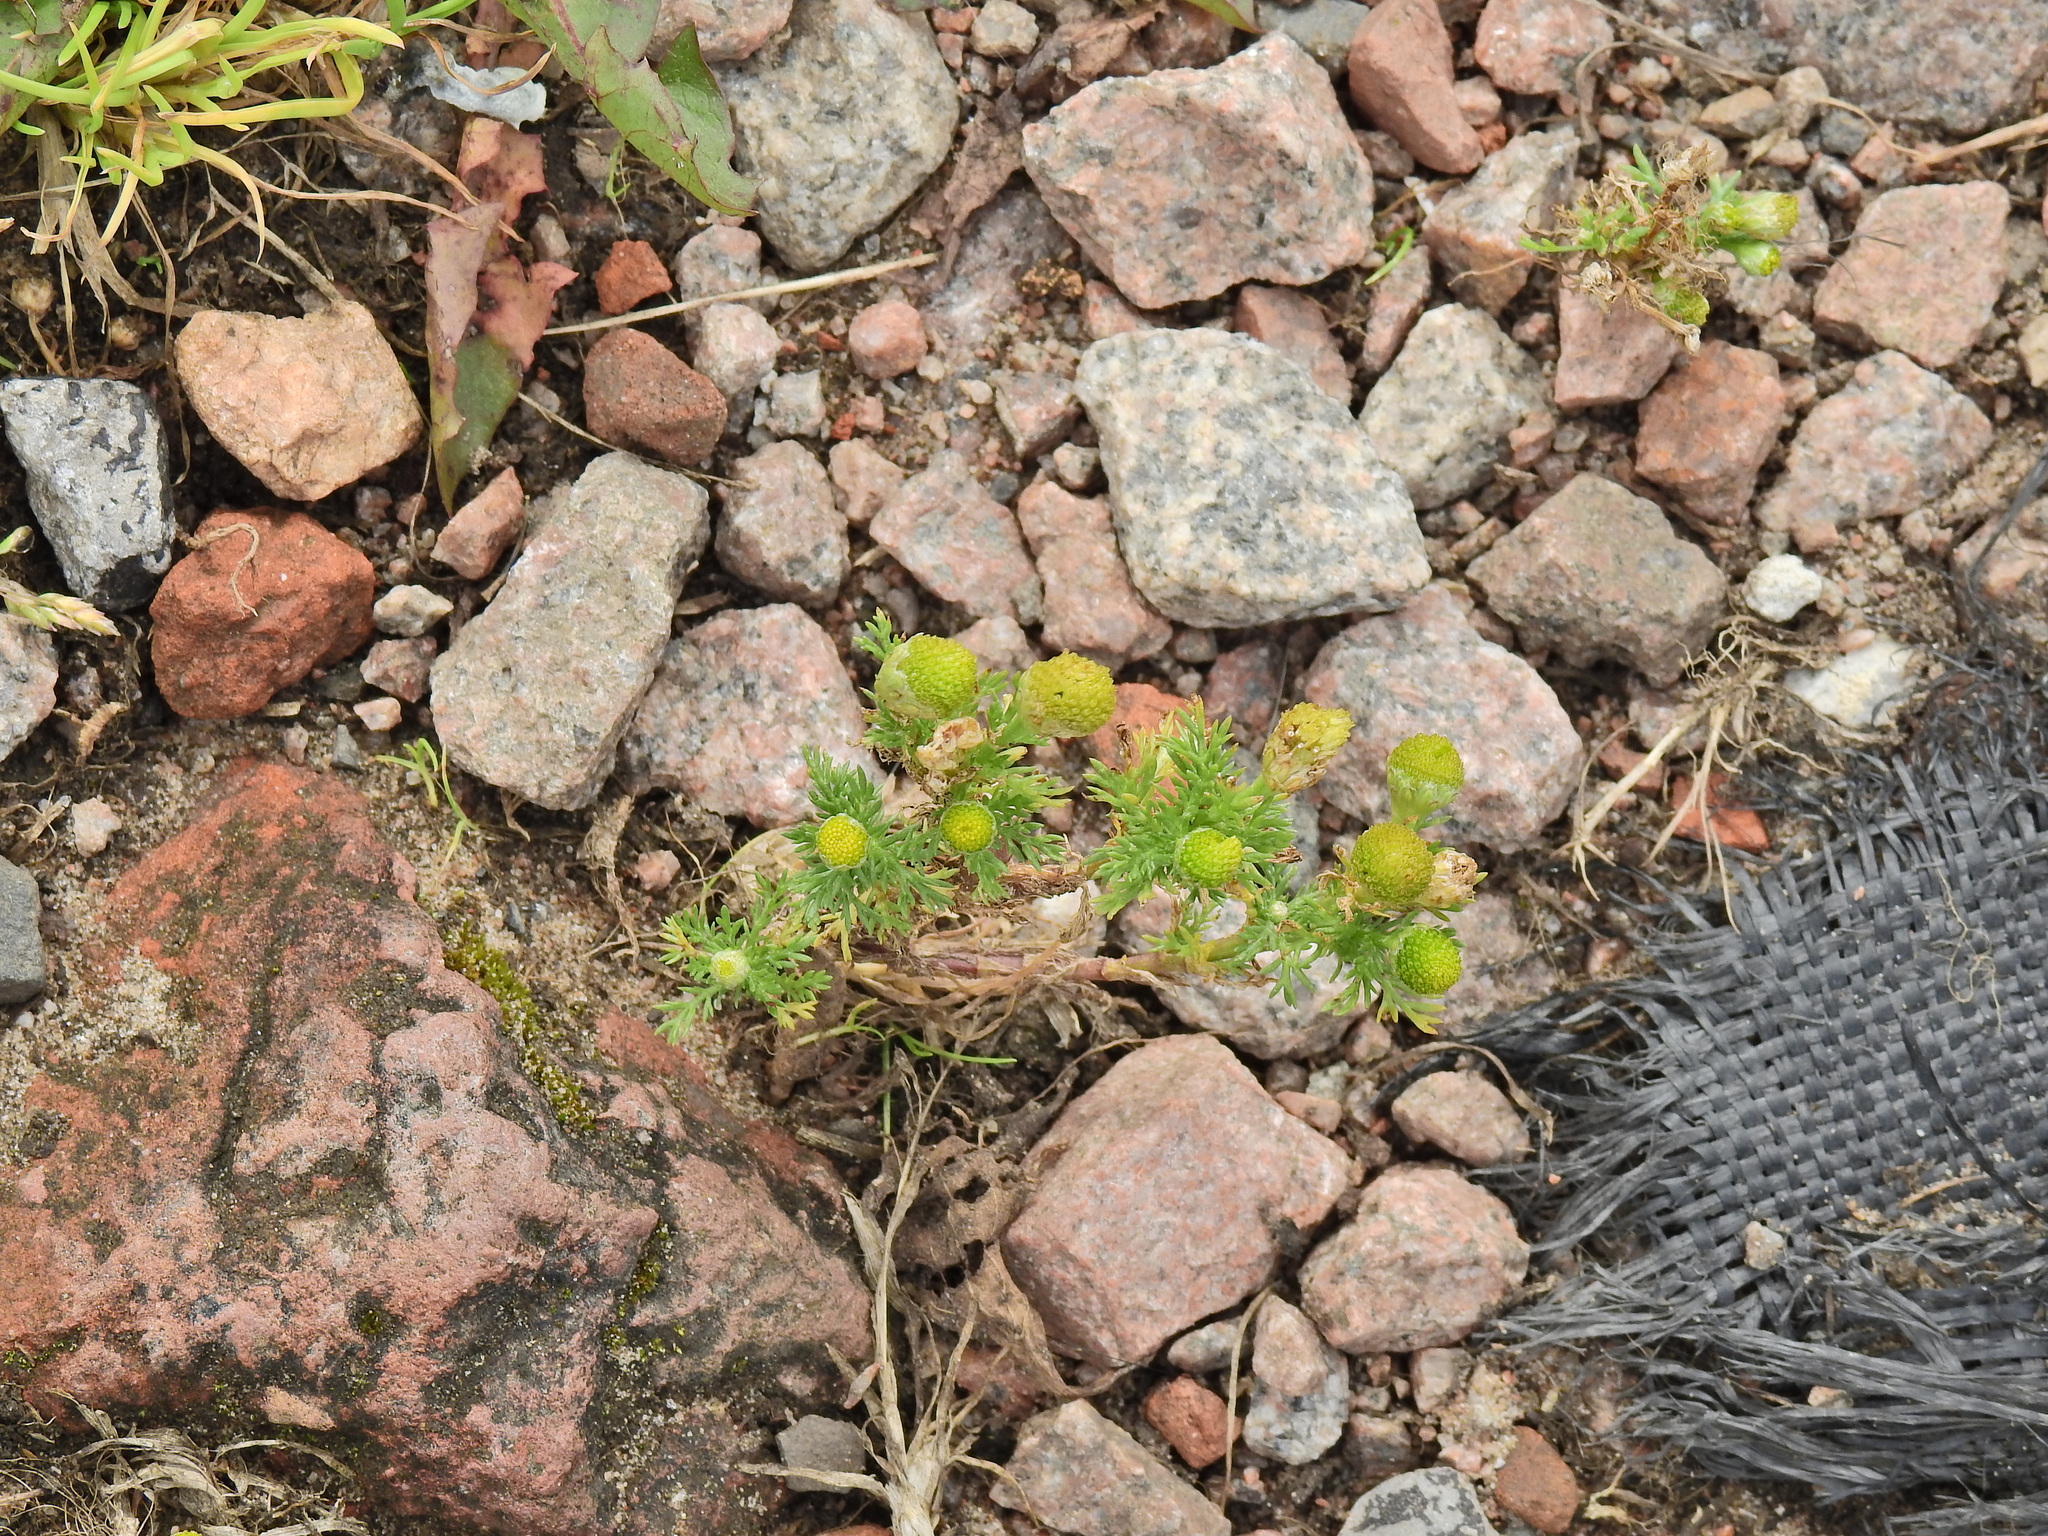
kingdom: Plantae
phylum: Tracheophyta
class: Magnoliopsida
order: Asterales
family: Asteraceae
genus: Matricaria
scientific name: Matricaria discoidea
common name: Disc mayweed
